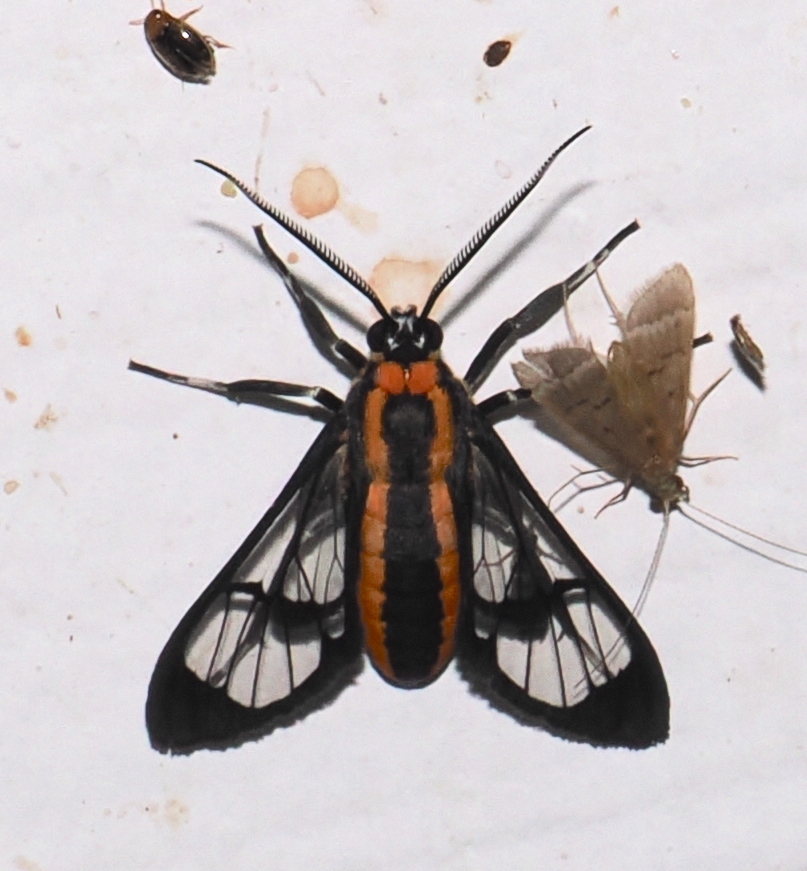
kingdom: Animalia
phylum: Arthropoda
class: Insecta
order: Lepidoptera
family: Erebidae
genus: Loxophlebia
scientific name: Loxophlebia diaphana
